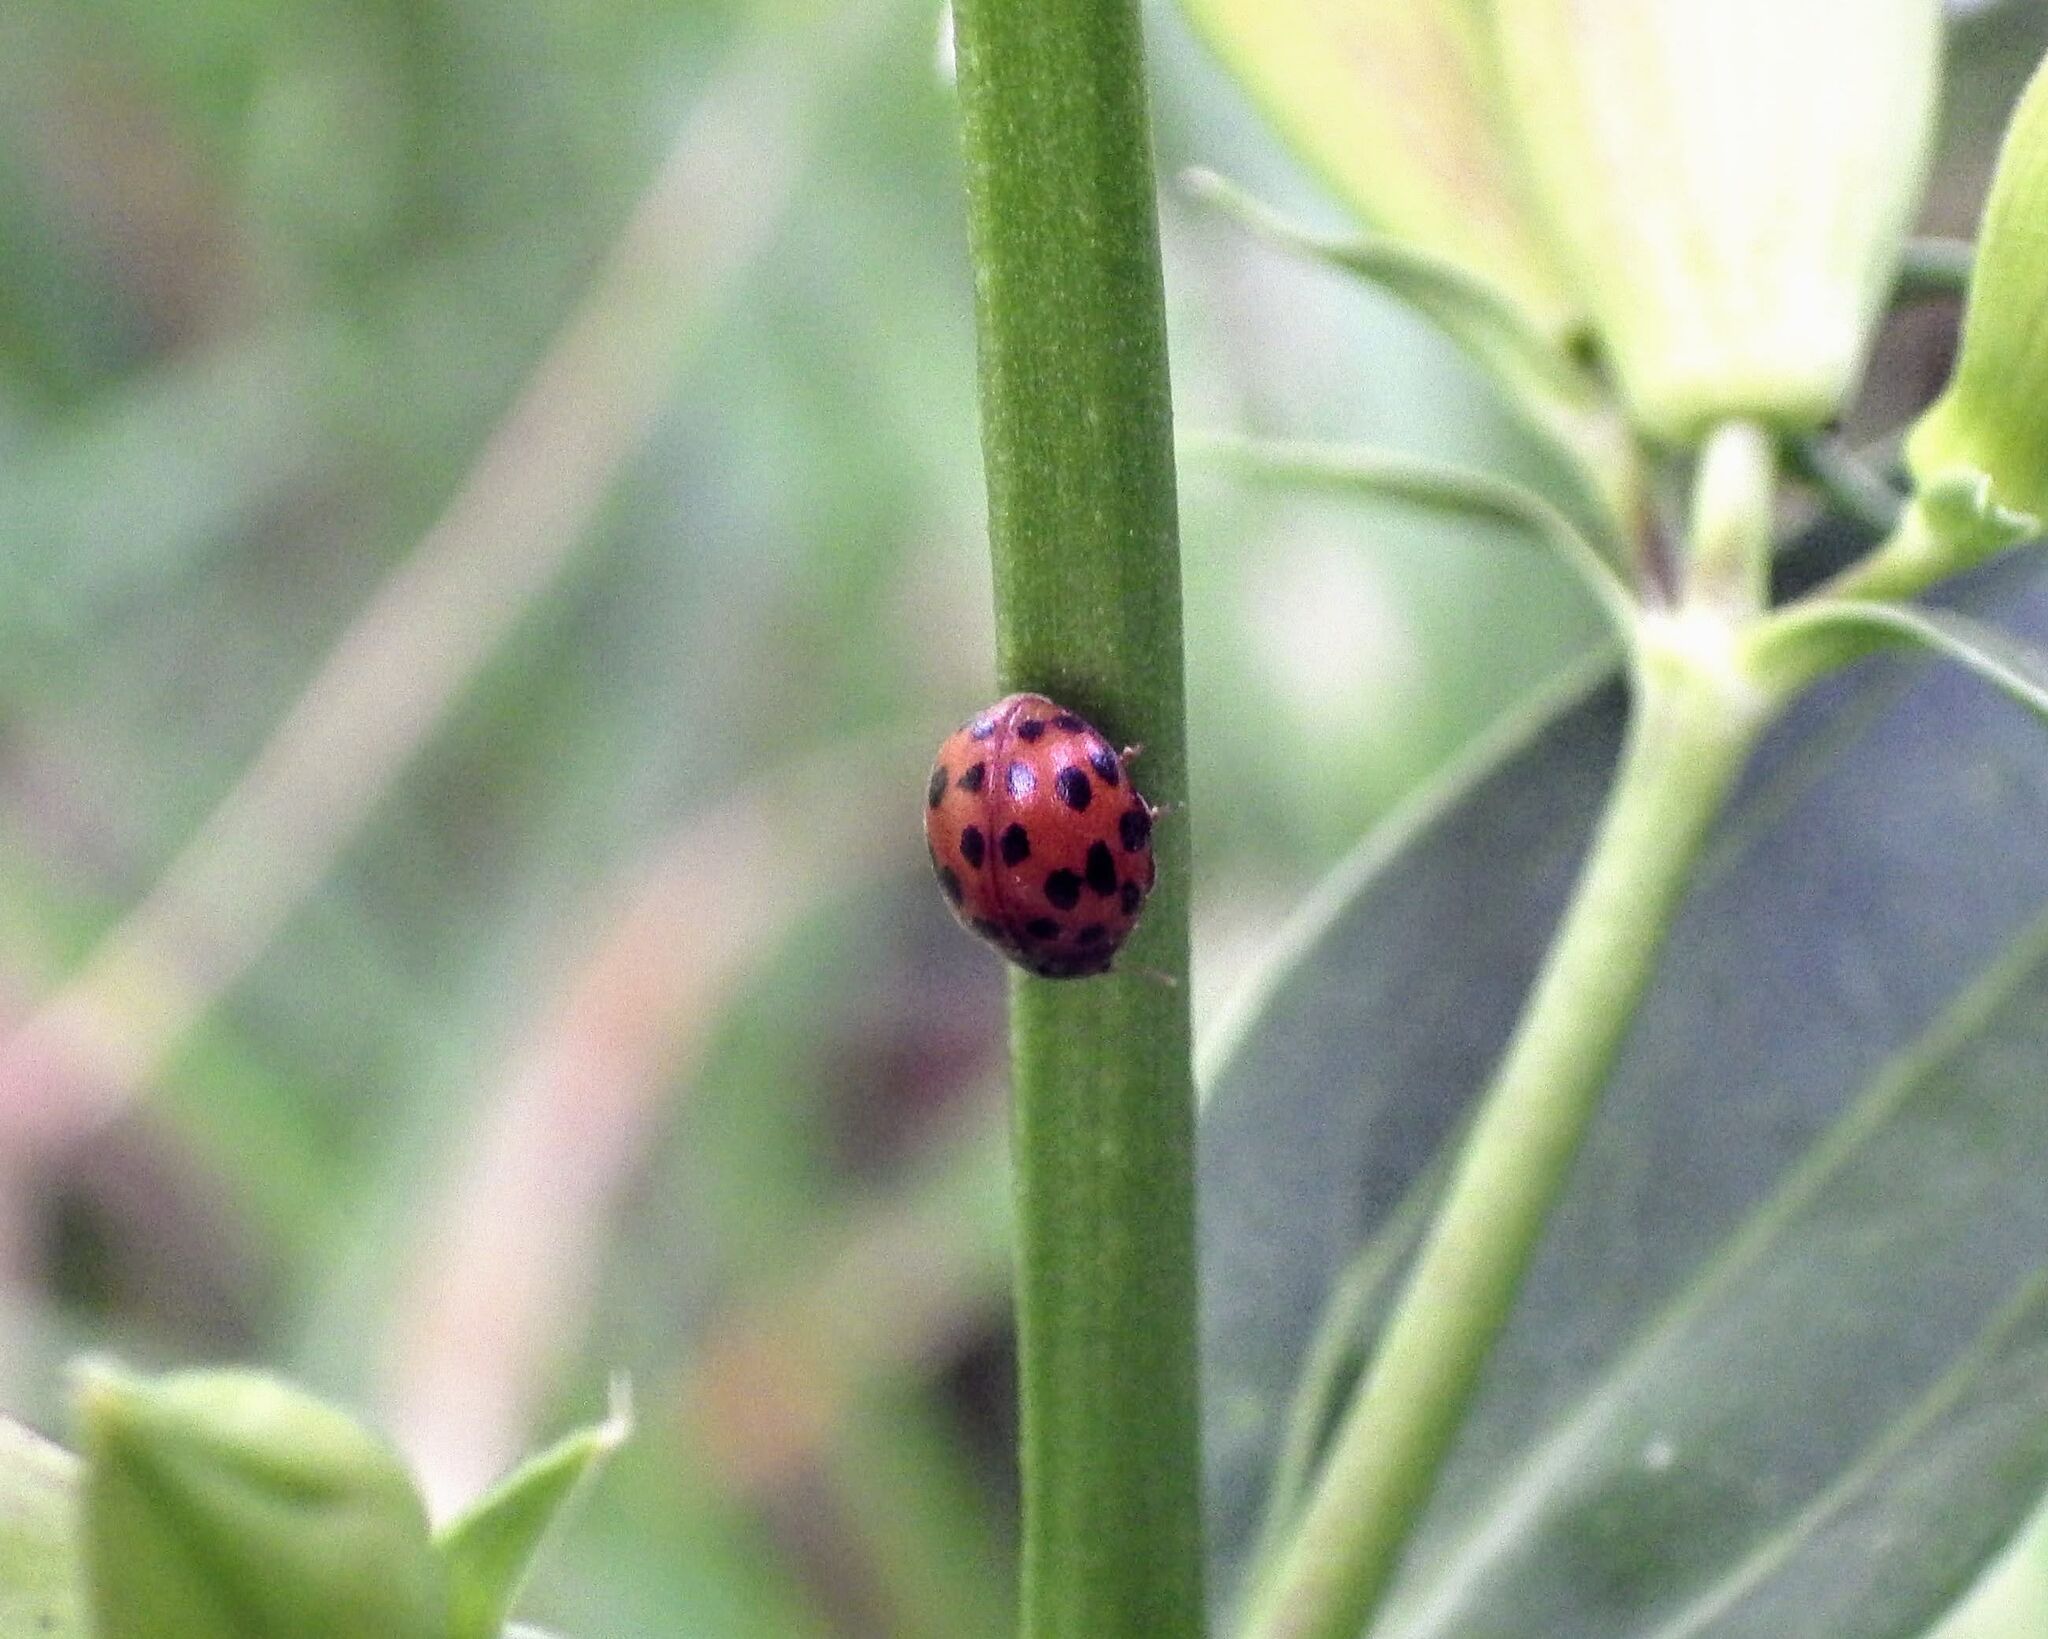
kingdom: Animalia
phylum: Arthropoda
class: Insecta
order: Coleoptera
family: Coccinellidae
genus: Subcoccinella
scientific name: Subcoccinella vigintiquatuorpunctata
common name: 24-spot ladybird
